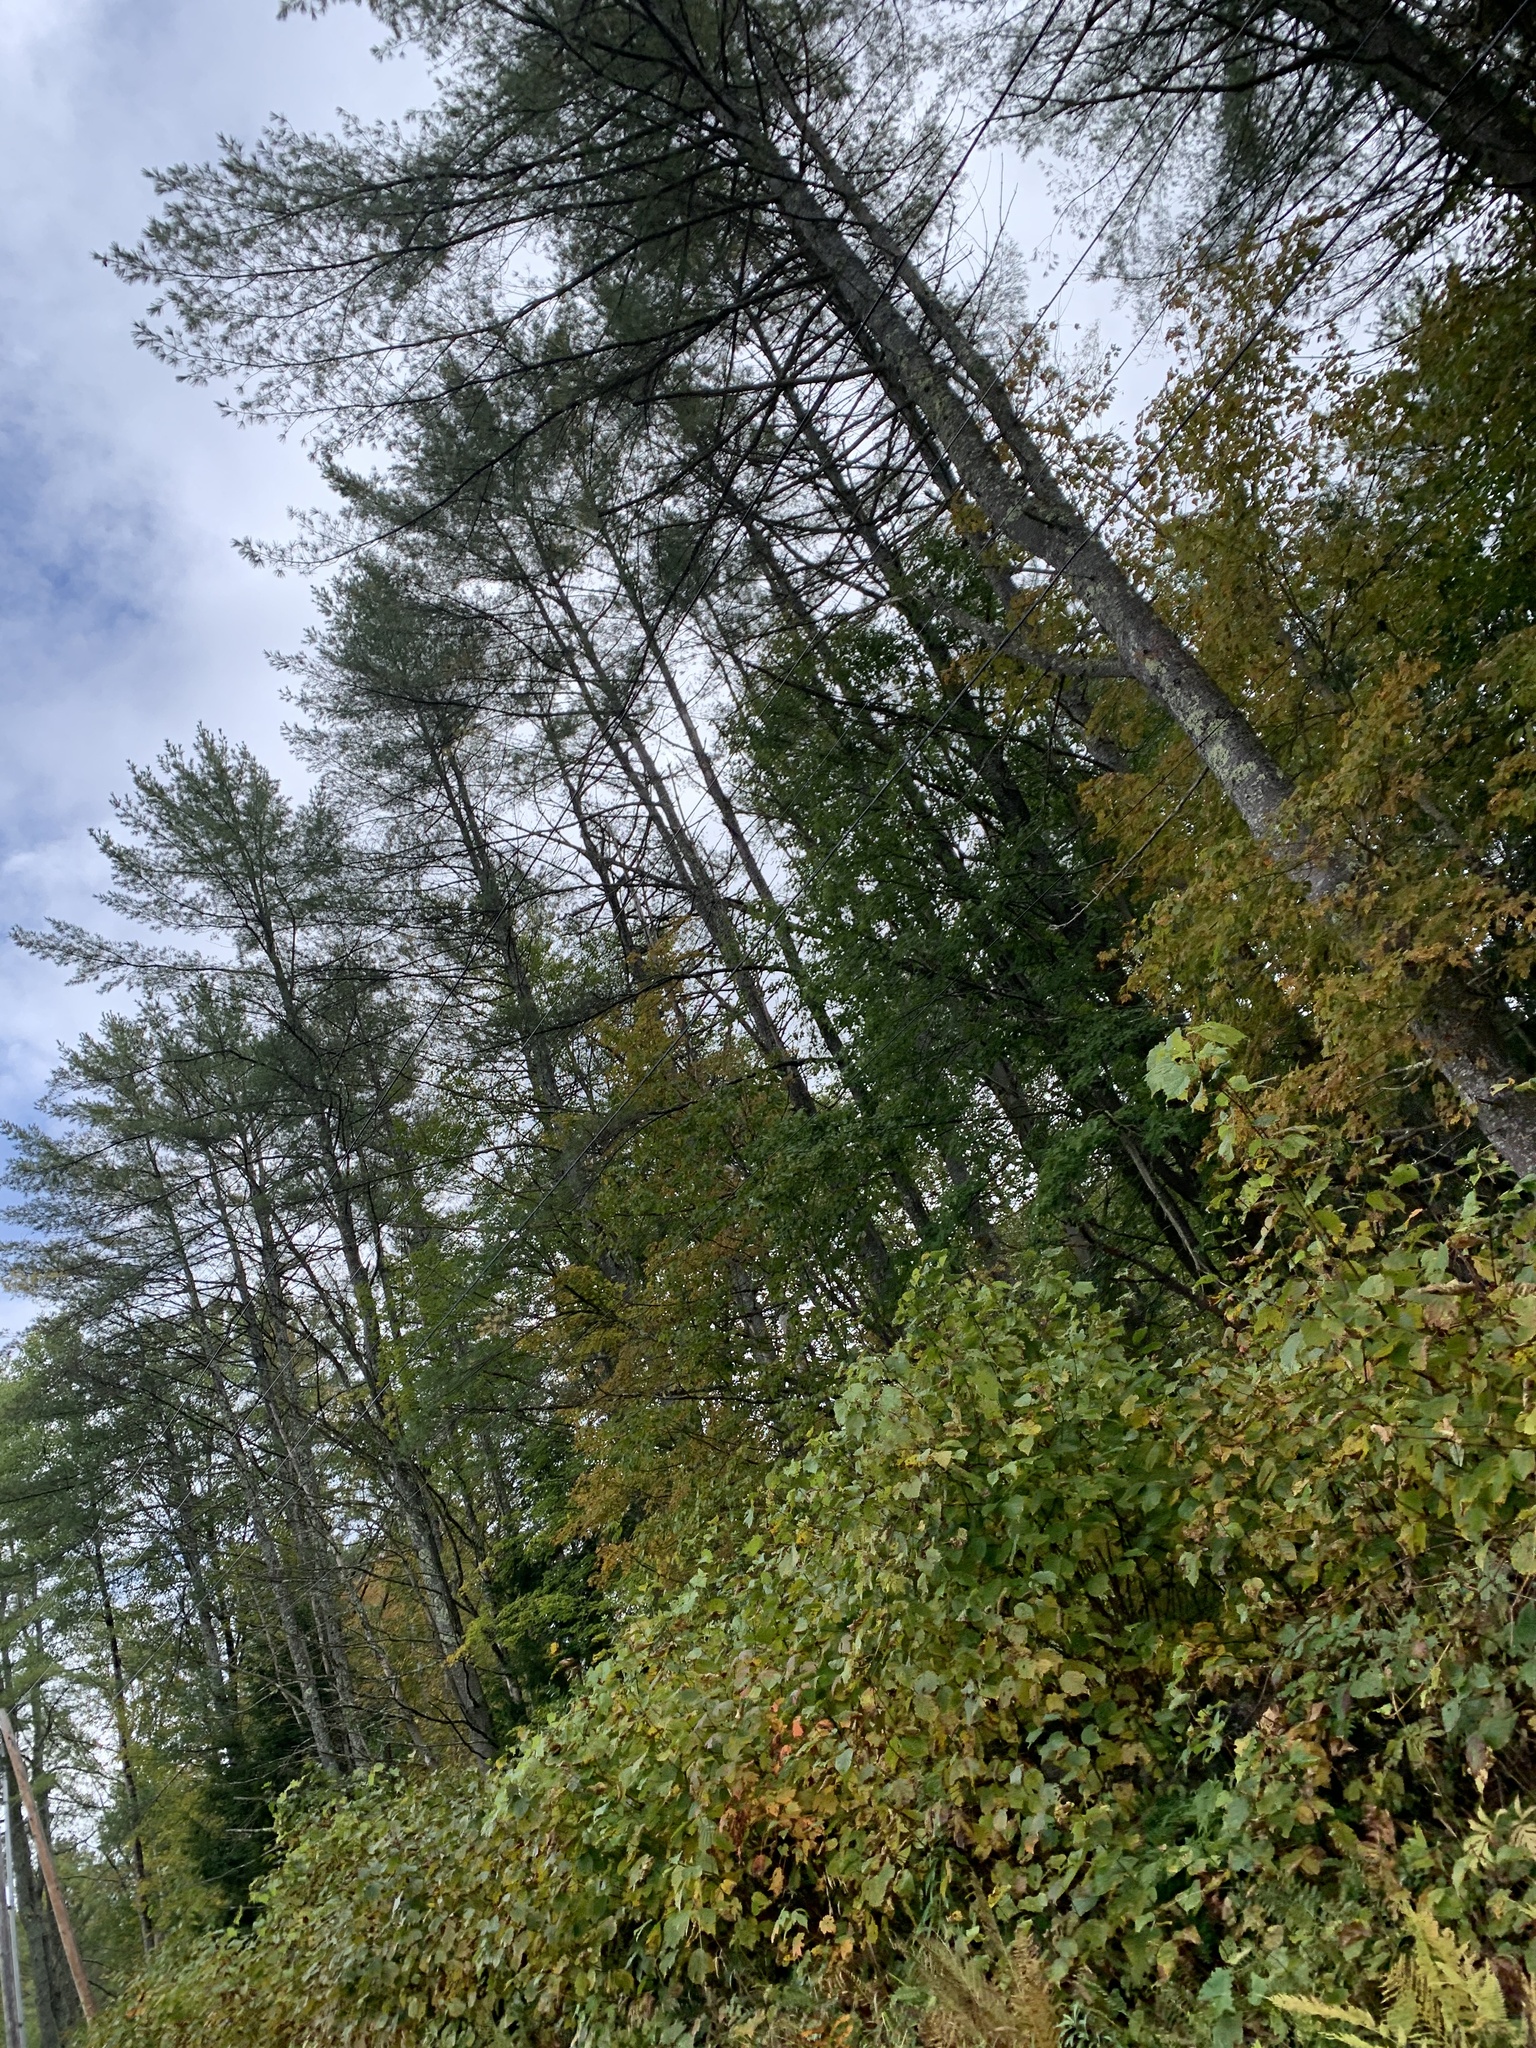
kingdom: Plantae
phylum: Tracheophyta
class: Pinopsida
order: Pinales
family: Pinaceae
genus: Pinus
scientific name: Pinus strobus
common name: Weymouth pine
